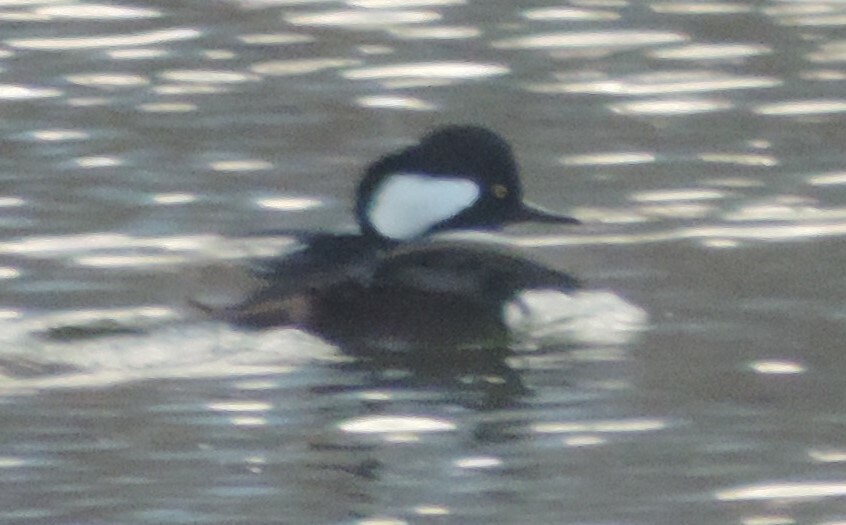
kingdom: Animalia
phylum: Chordata
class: Aves
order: Anseriformes
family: Anatidae
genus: Lophodytes
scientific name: Lophodytes cucullatus
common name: Hooded merganser
